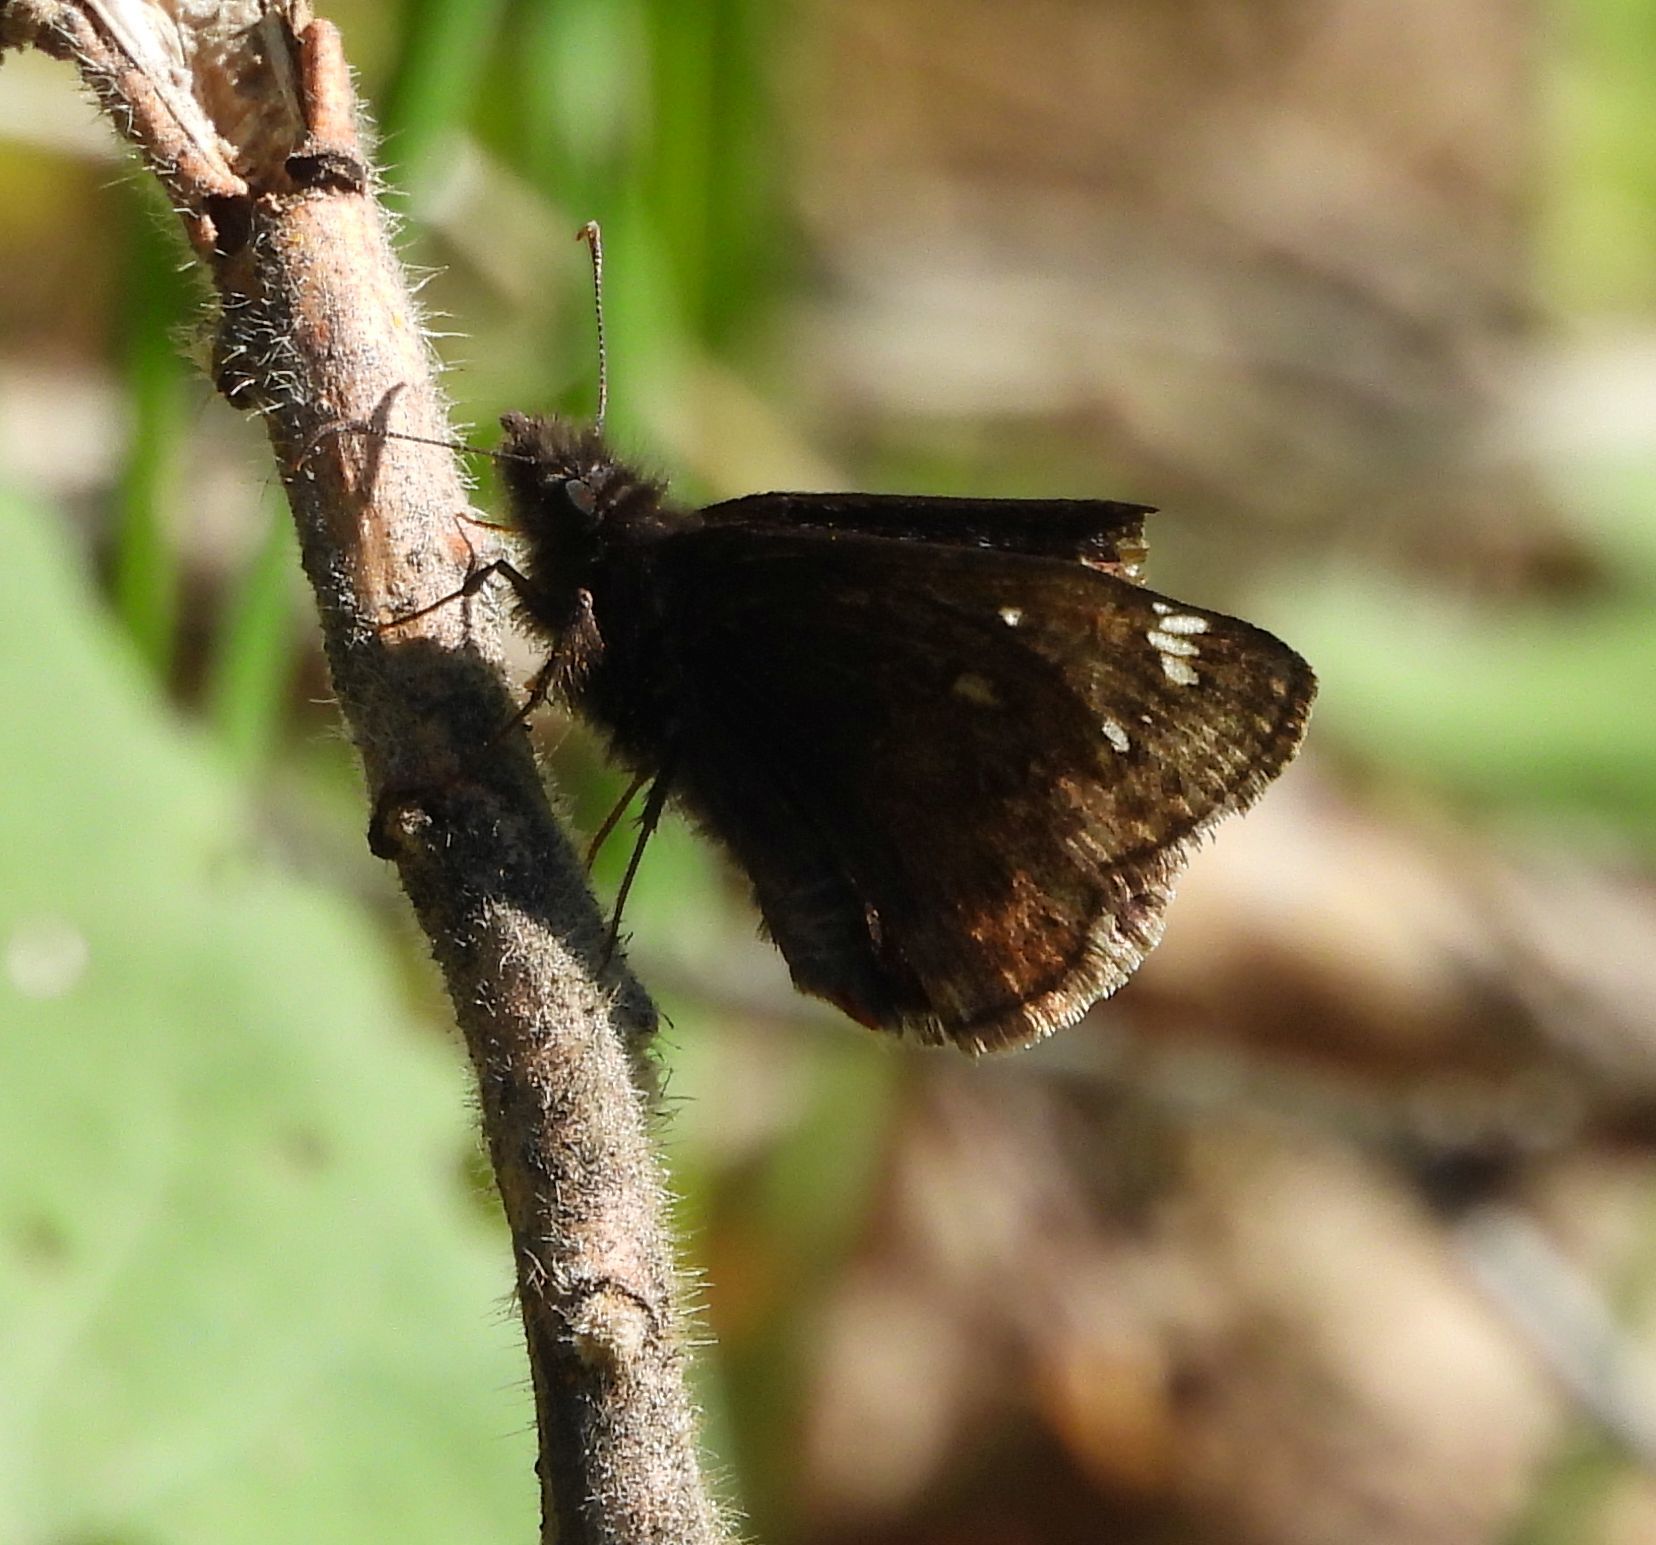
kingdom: Animalia
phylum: Arthropoda
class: Insecta
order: Lepidoptera
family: Hesperiidae
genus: Erynnis
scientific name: Erynnis juvenalis
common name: Juvenal's duskywing
